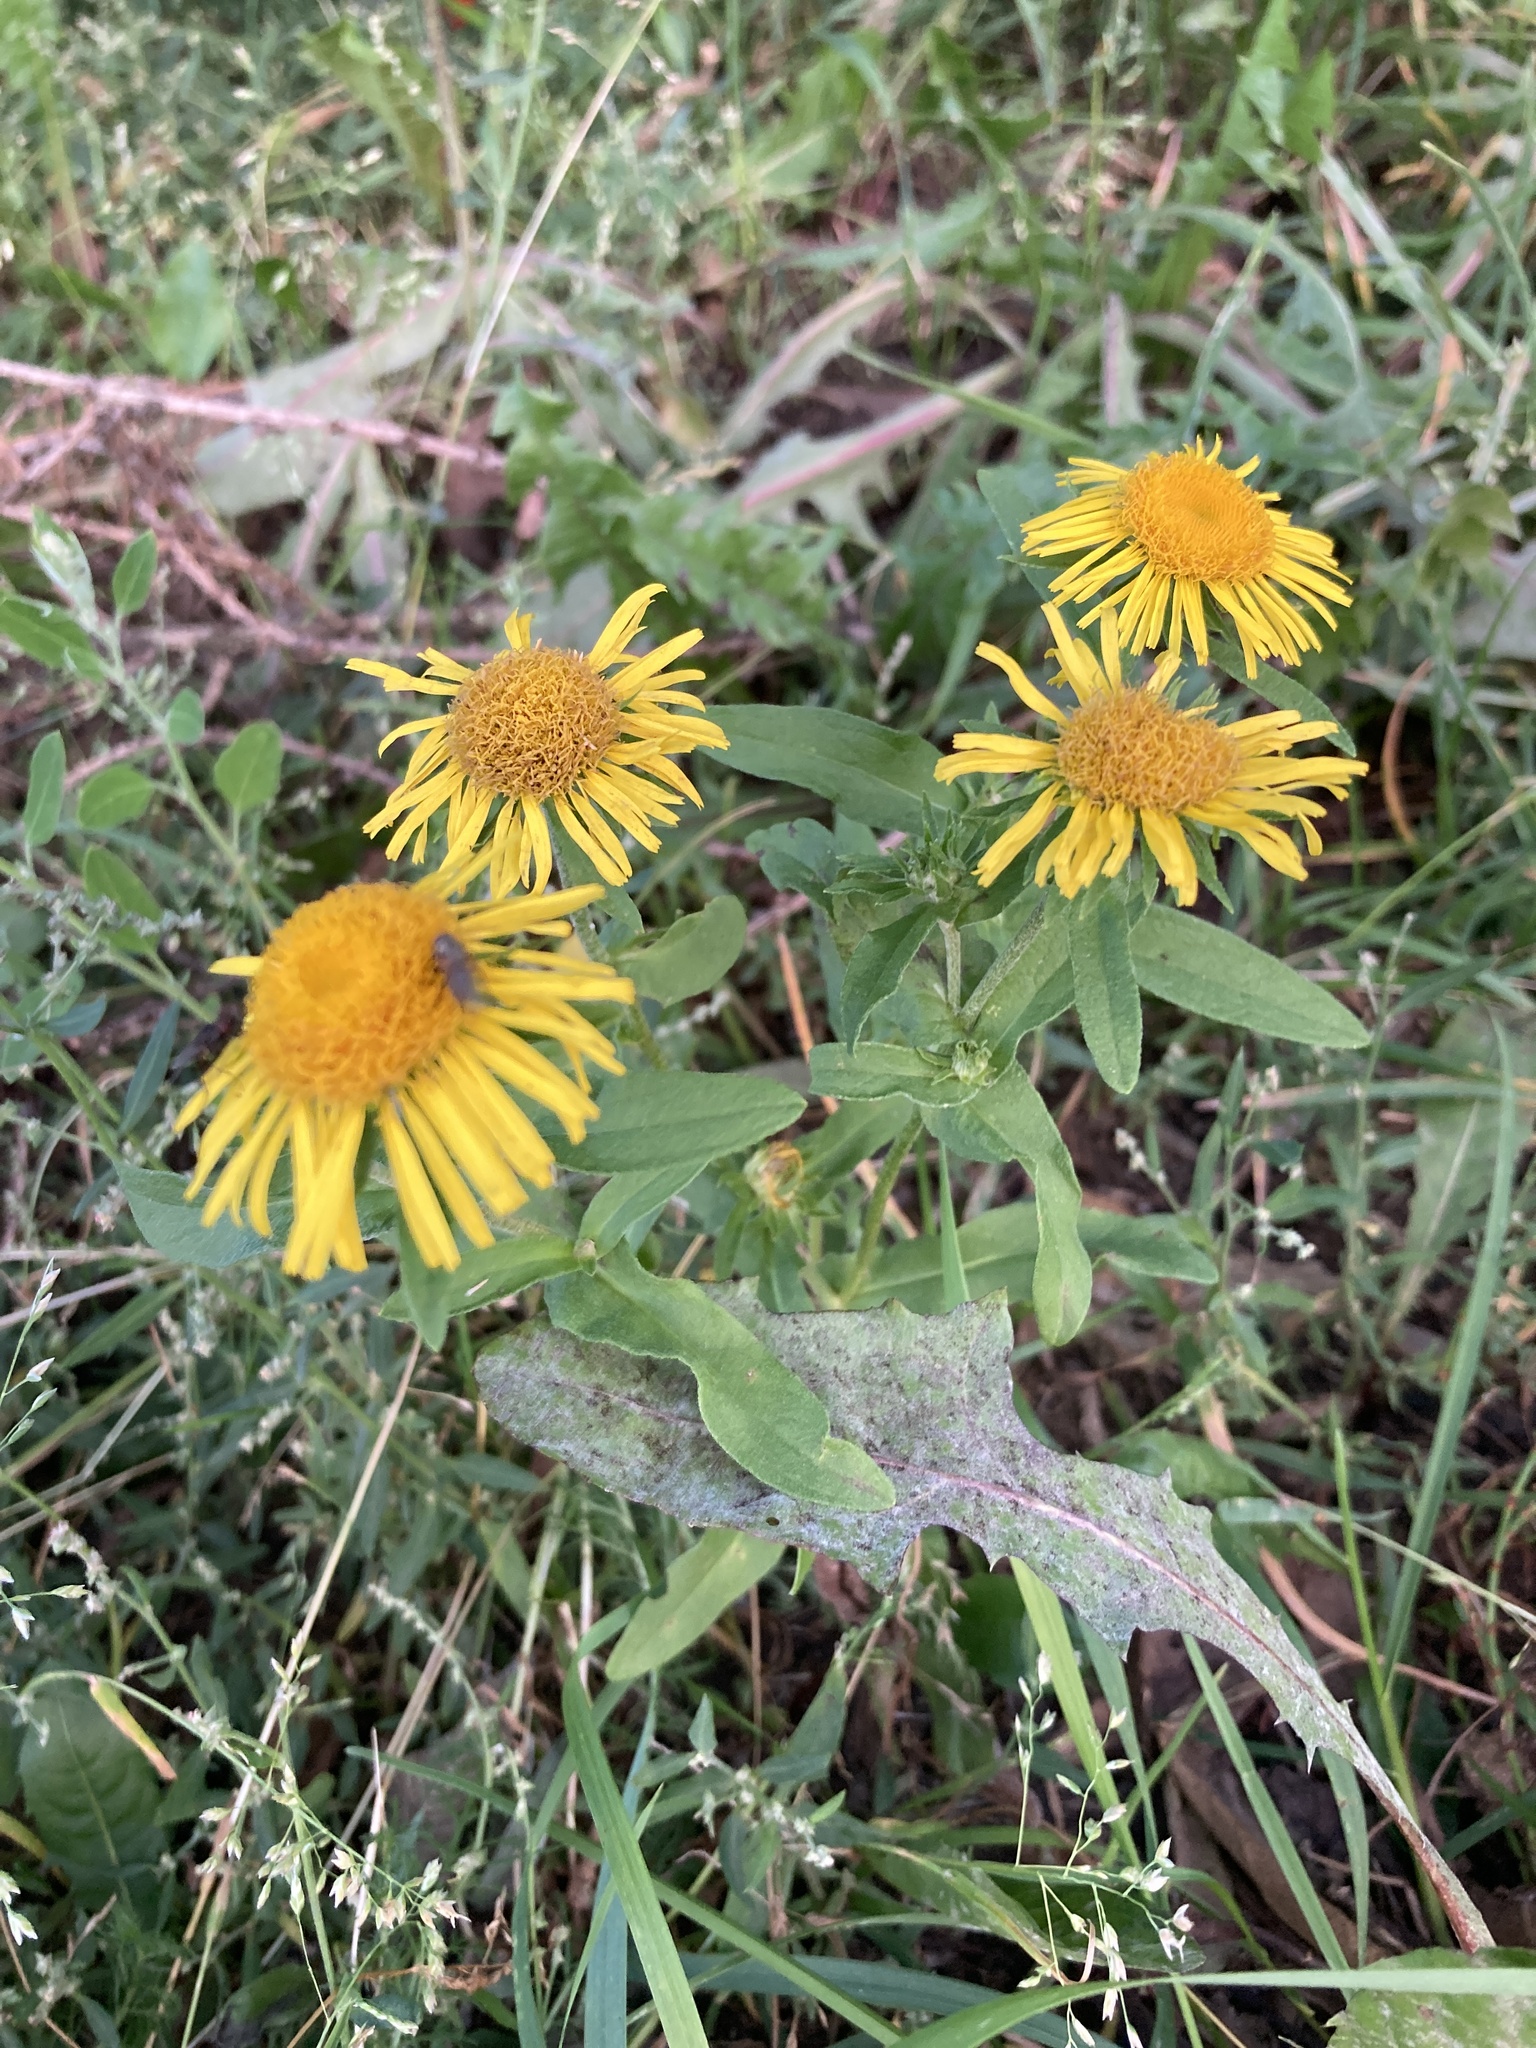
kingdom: Plantae
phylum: Tracheophyta
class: Magnoliopsida
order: Asterales
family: Asteraceae
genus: Pentanema
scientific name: Pentanema britannicum
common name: British elecampane
